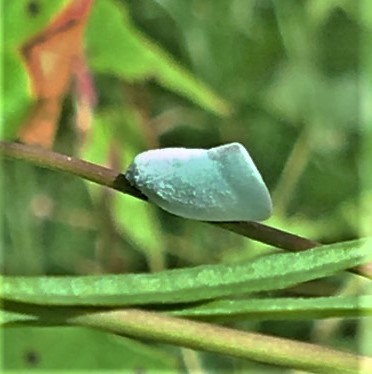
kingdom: Animalia
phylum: Arthropoda
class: Insecta
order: Hemiptera
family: Flatidae
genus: Flatormenis
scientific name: Flatormenis proxima
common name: Northern flatid planthopper
